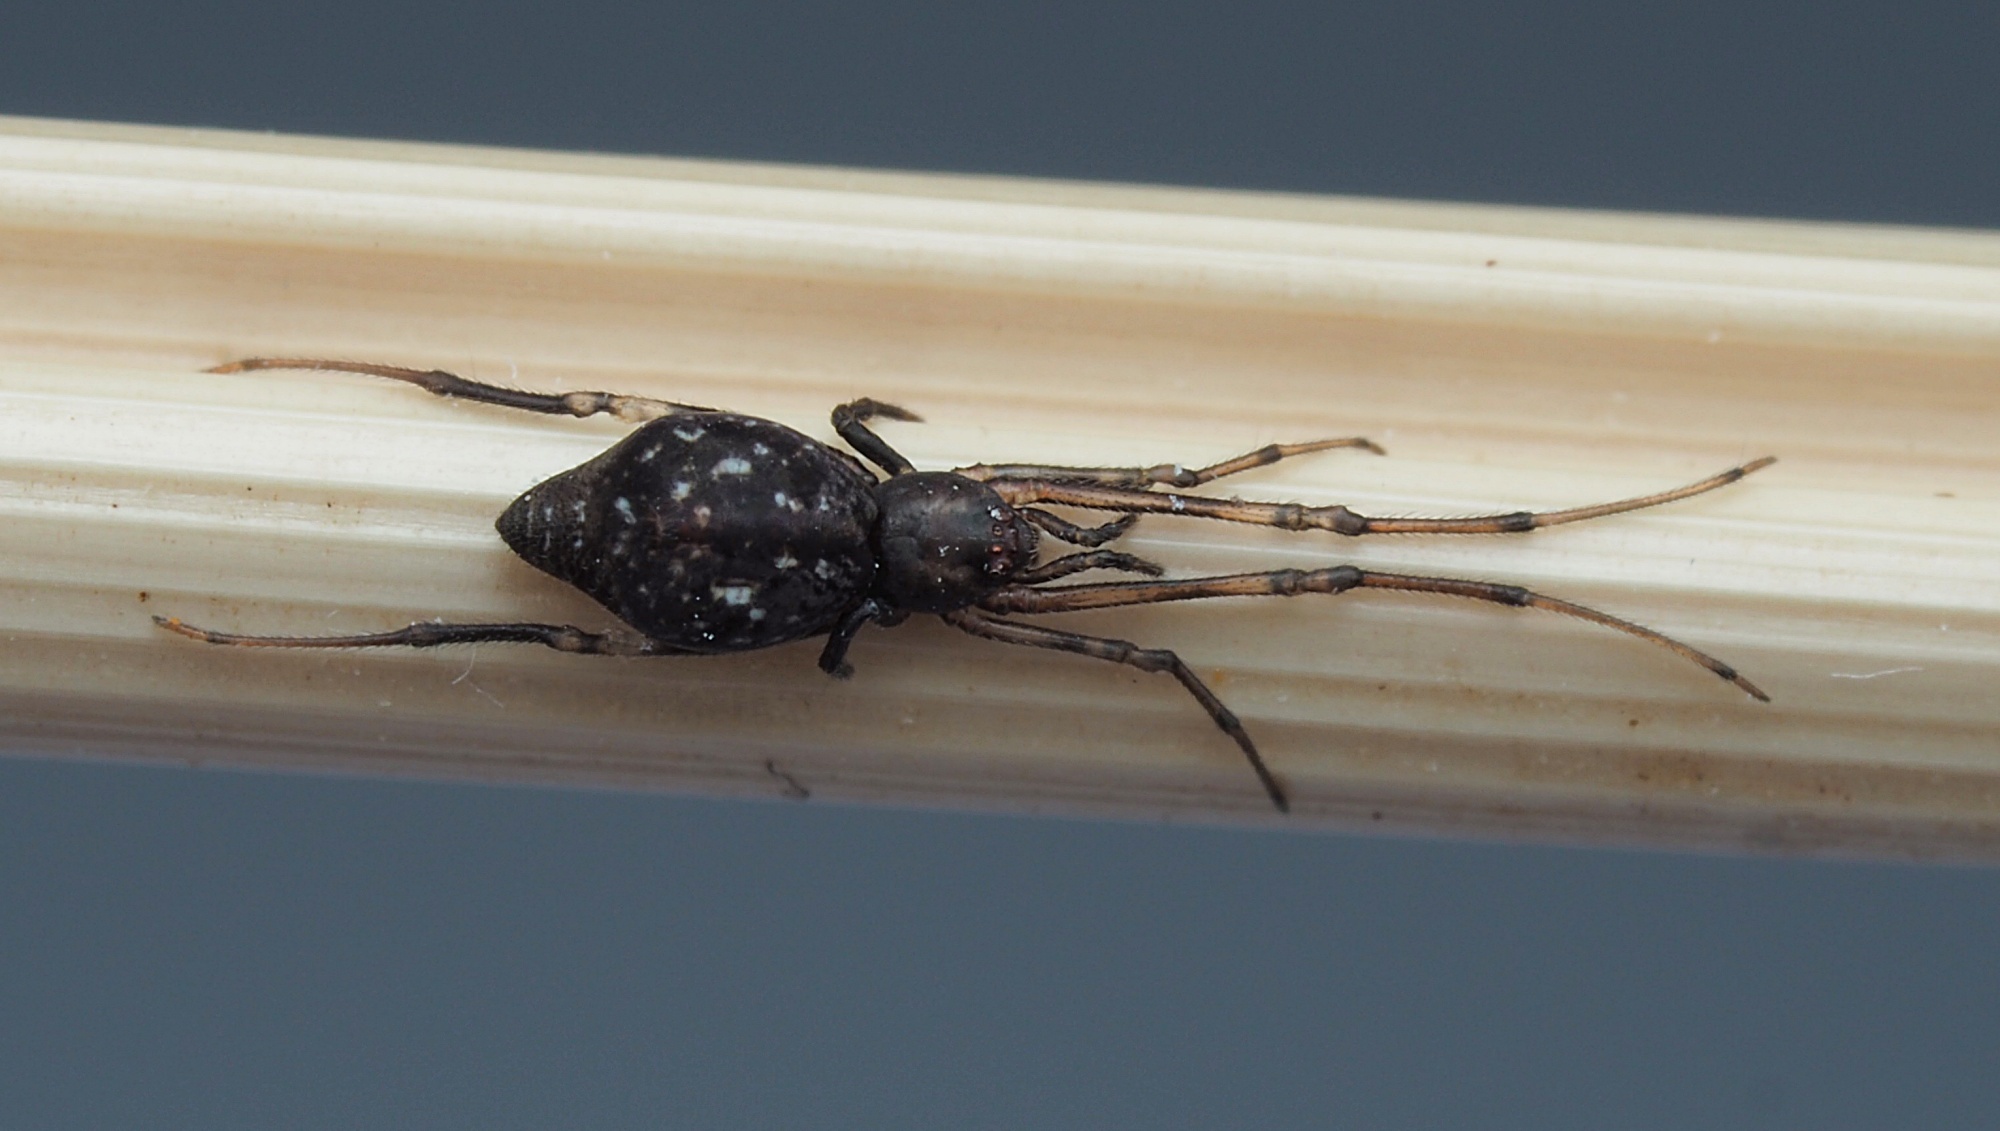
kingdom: Animalia
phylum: Arthropoda
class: Arachnida
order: Araneae
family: Theridiidae
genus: Moneta
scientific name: Moneta conifera
